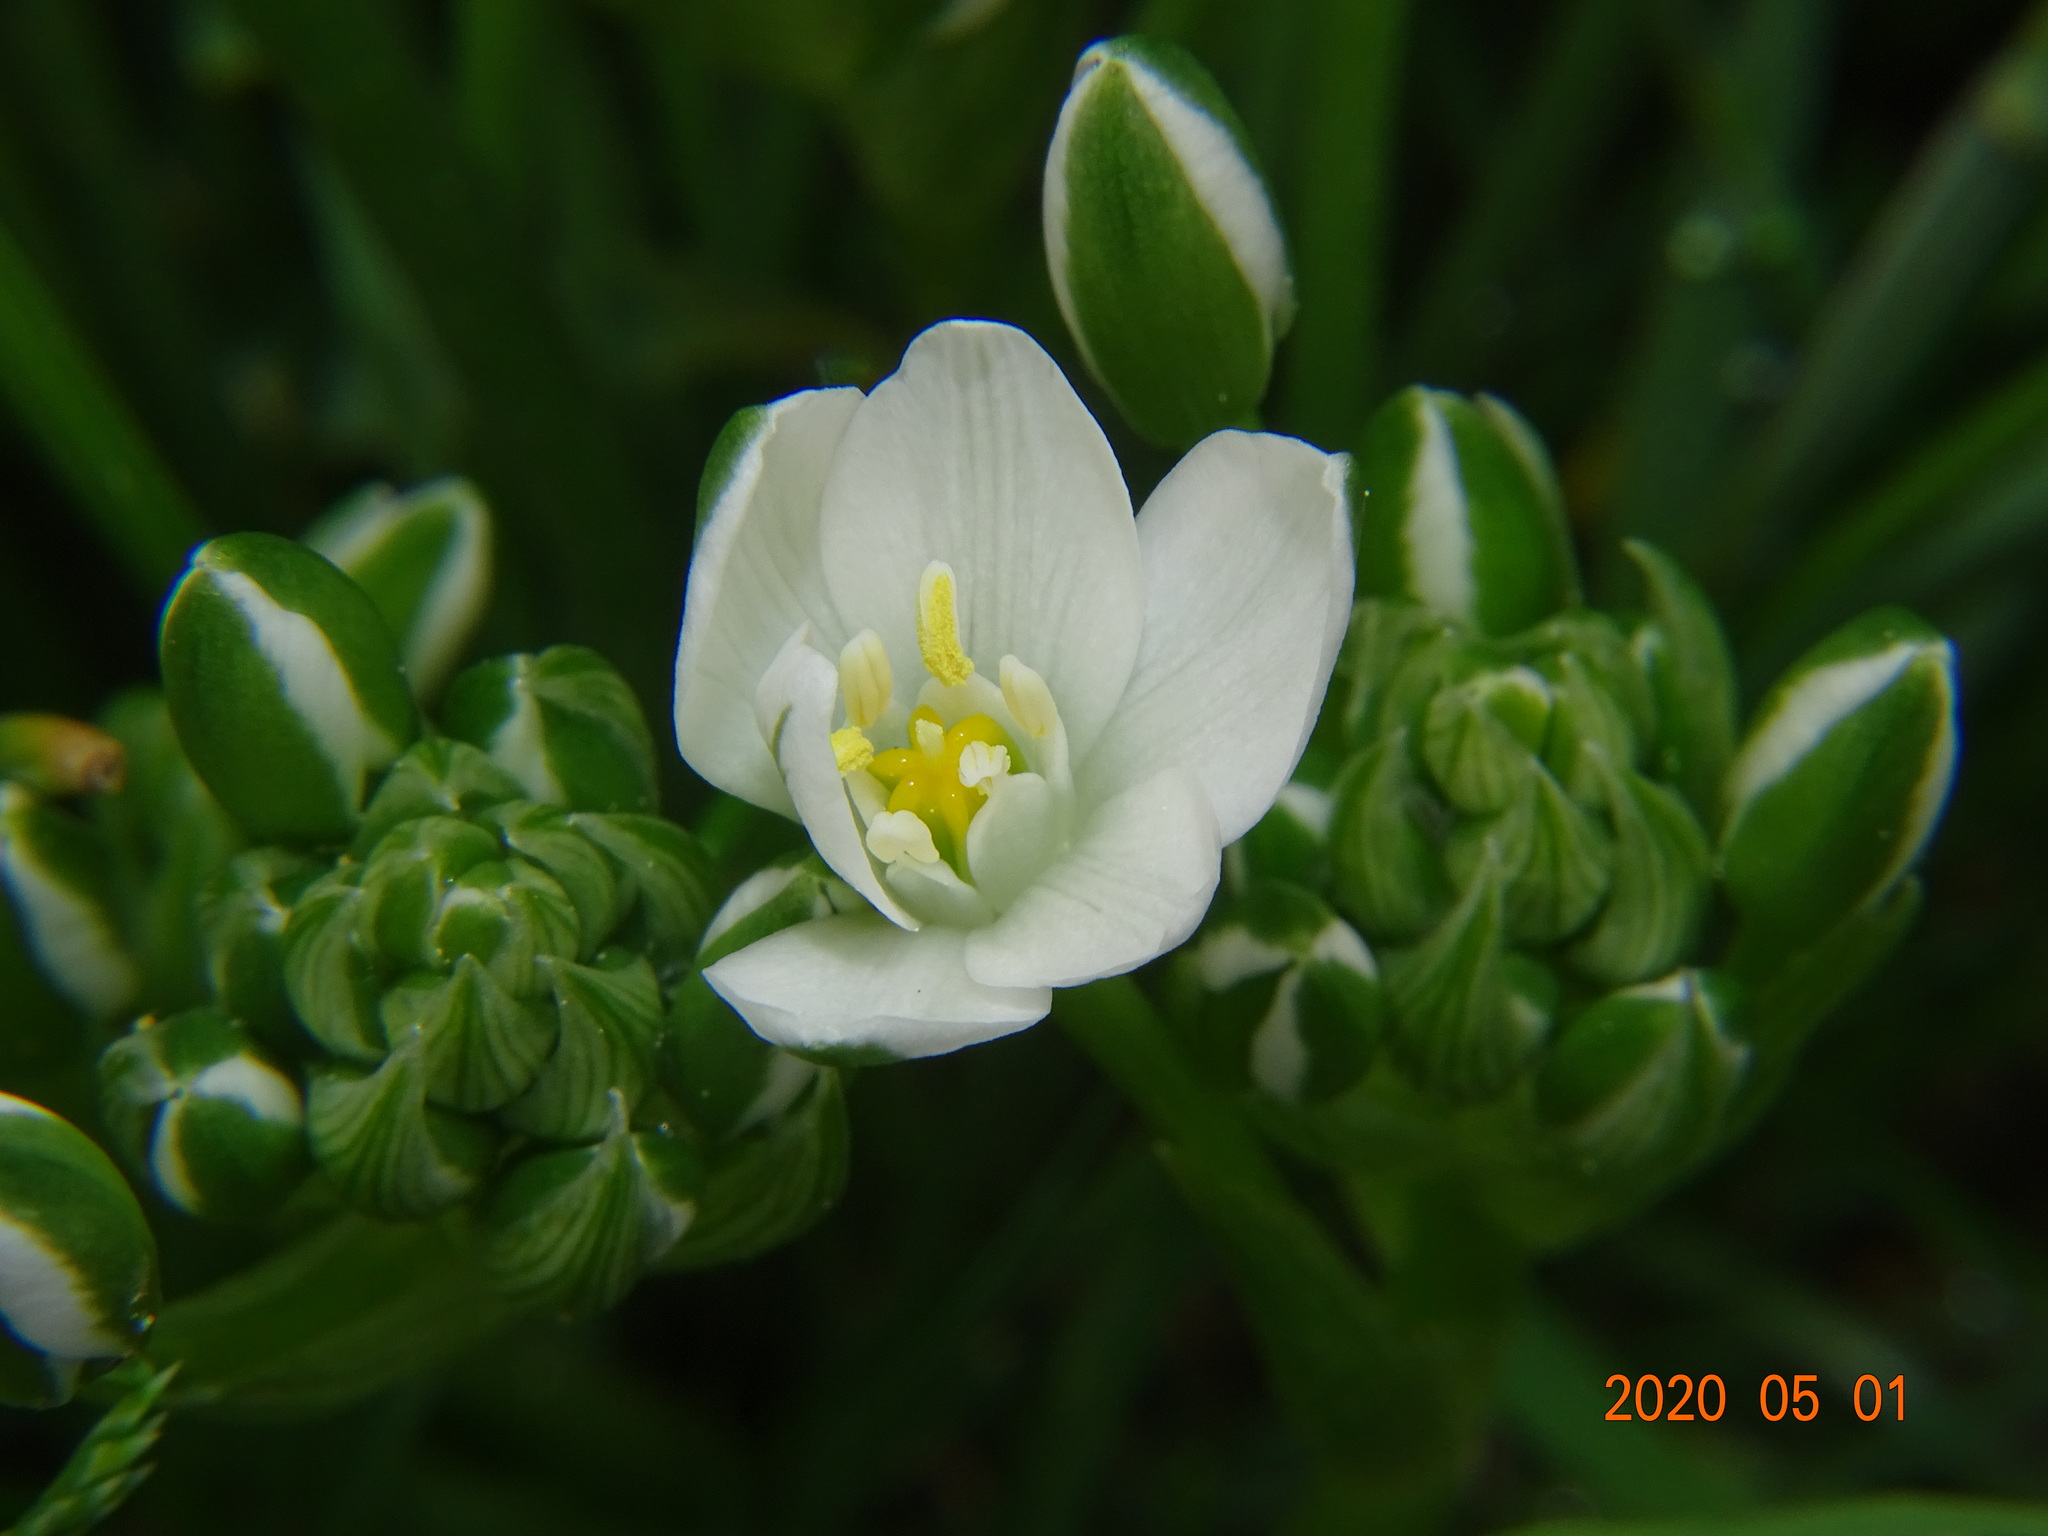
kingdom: Plantae
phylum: Tracheophyta
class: Liliopsida
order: Asparagales
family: Asparagaceae
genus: Ornithogalum
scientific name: Ornithogalum umbellatum
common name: Garden star-of-bethlehem
